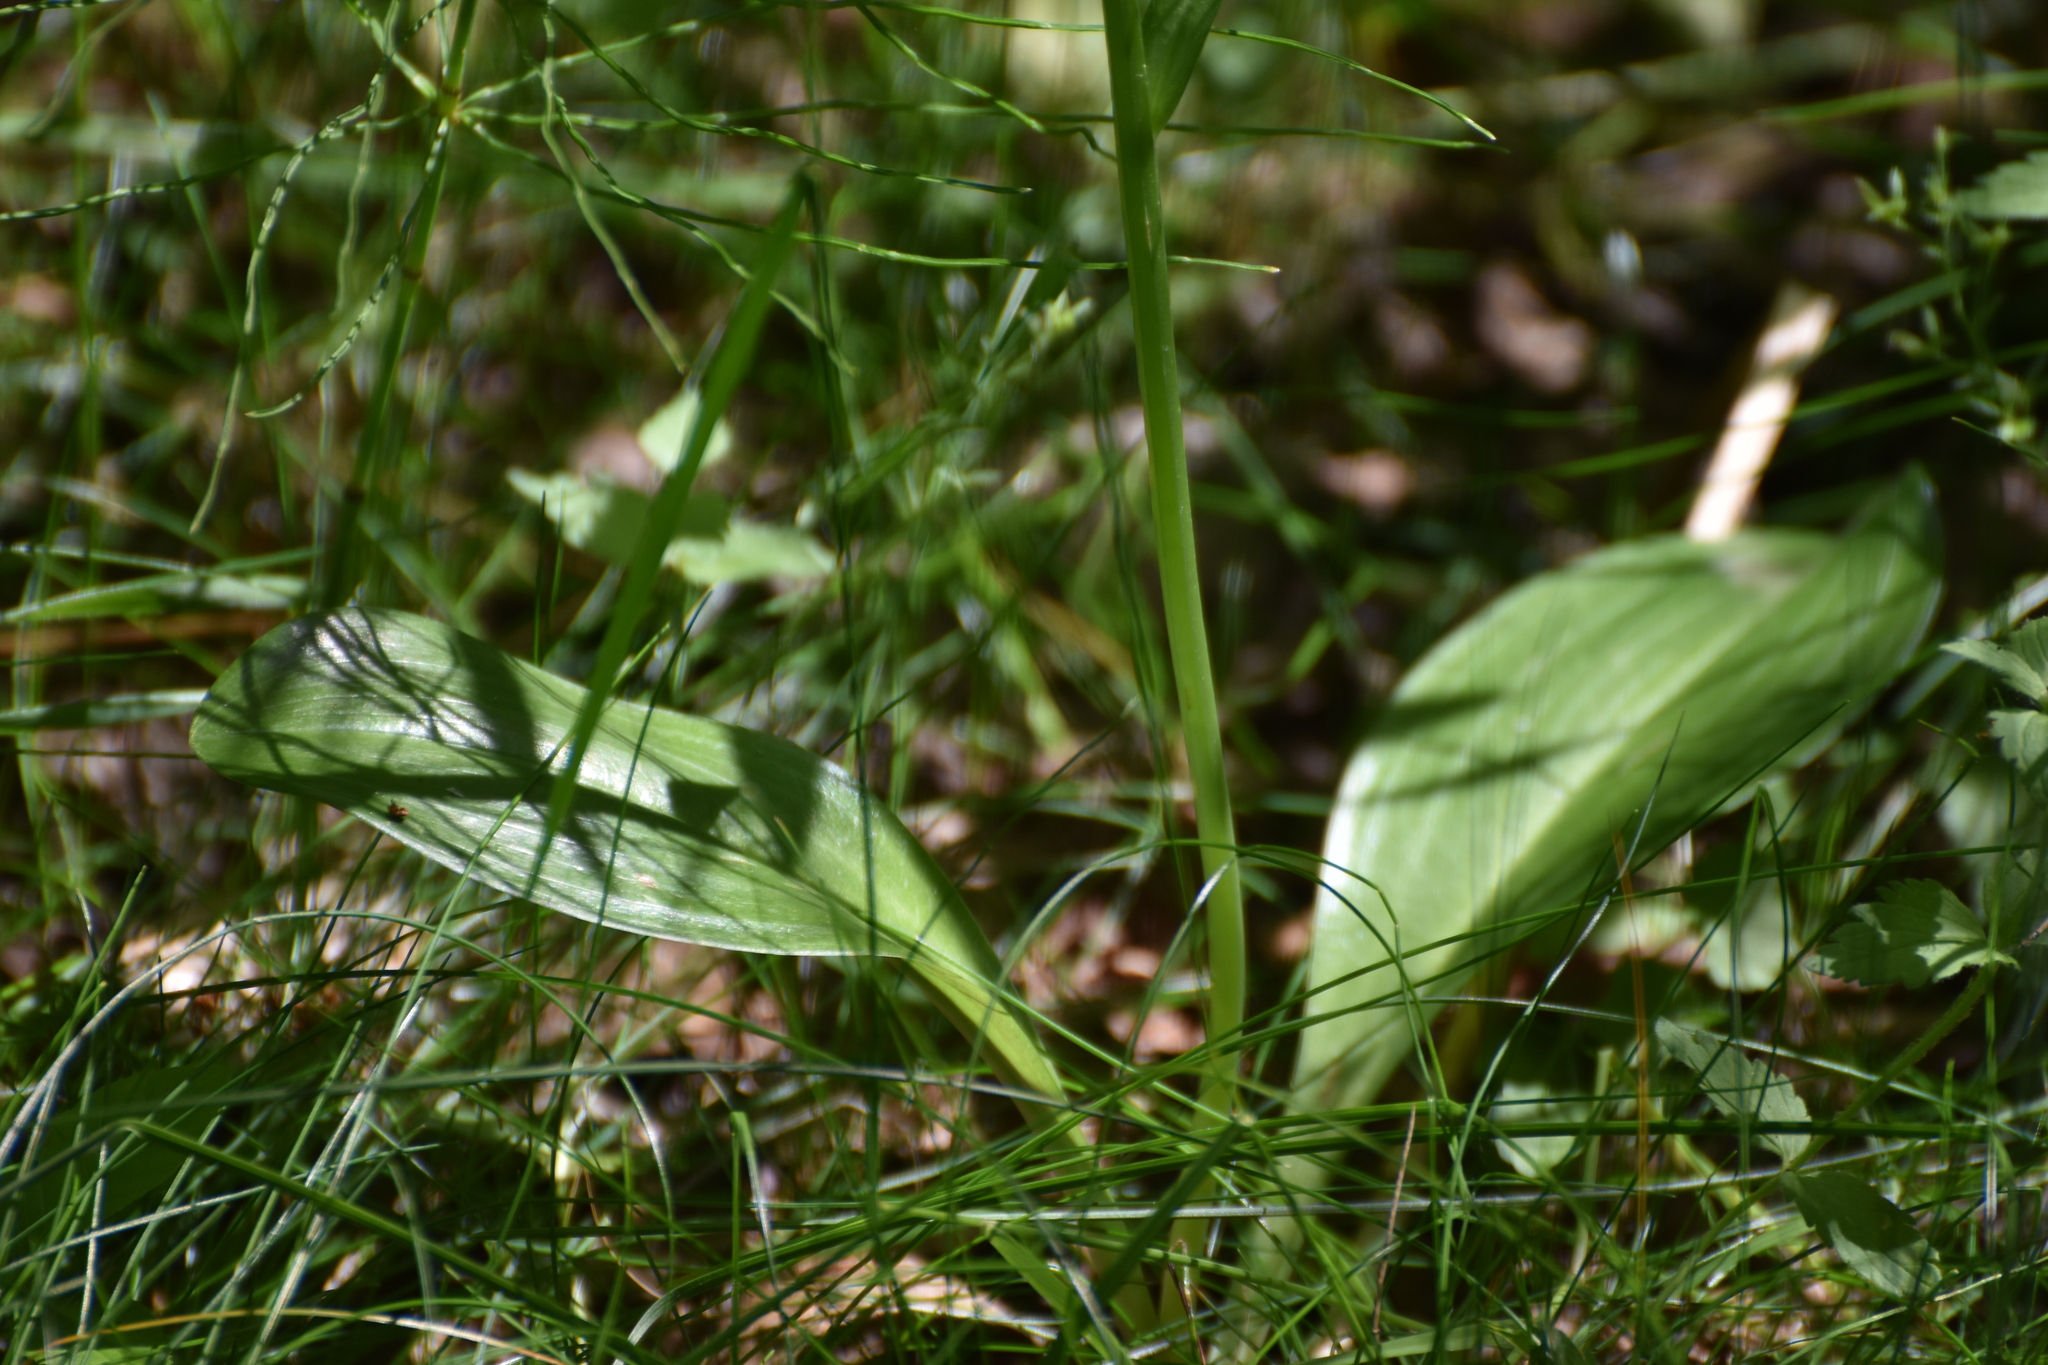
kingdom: Plantae
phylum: Tracheophyta
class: Liliopsida
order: Asparagales
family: Orchidaceae
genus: Platanthera
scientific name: Platanthera bifolia
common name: Lesser butterfly-orchid
